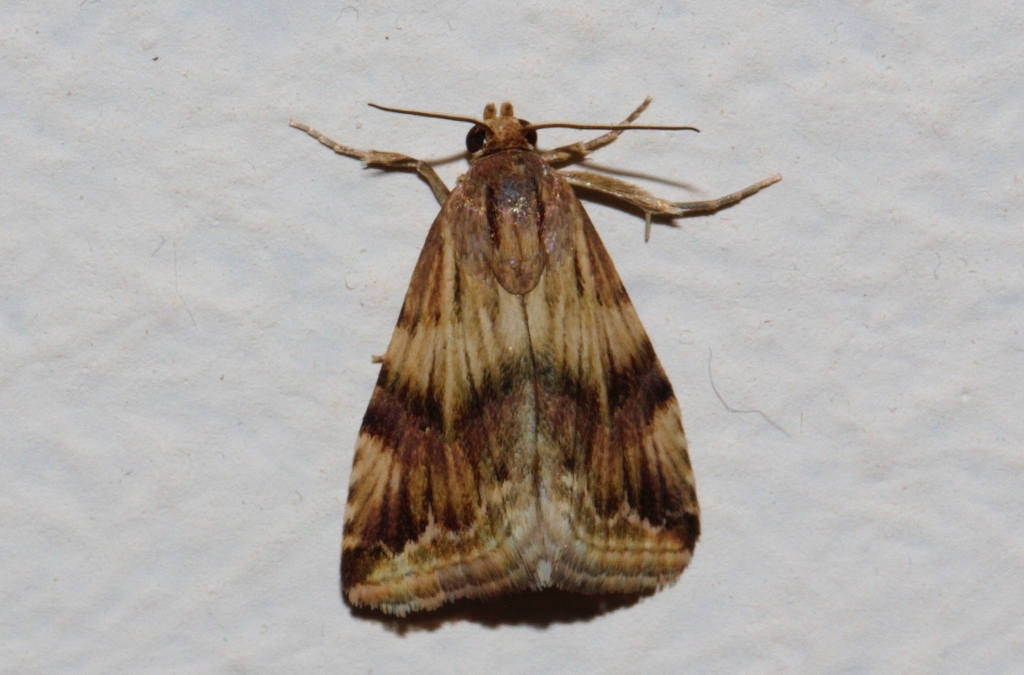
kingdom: Animalia
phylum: Arthropoda
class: Insecta
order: Lepidoptera
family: Noctuidae
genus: Eublemma
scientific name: Eublemma staudingeri
